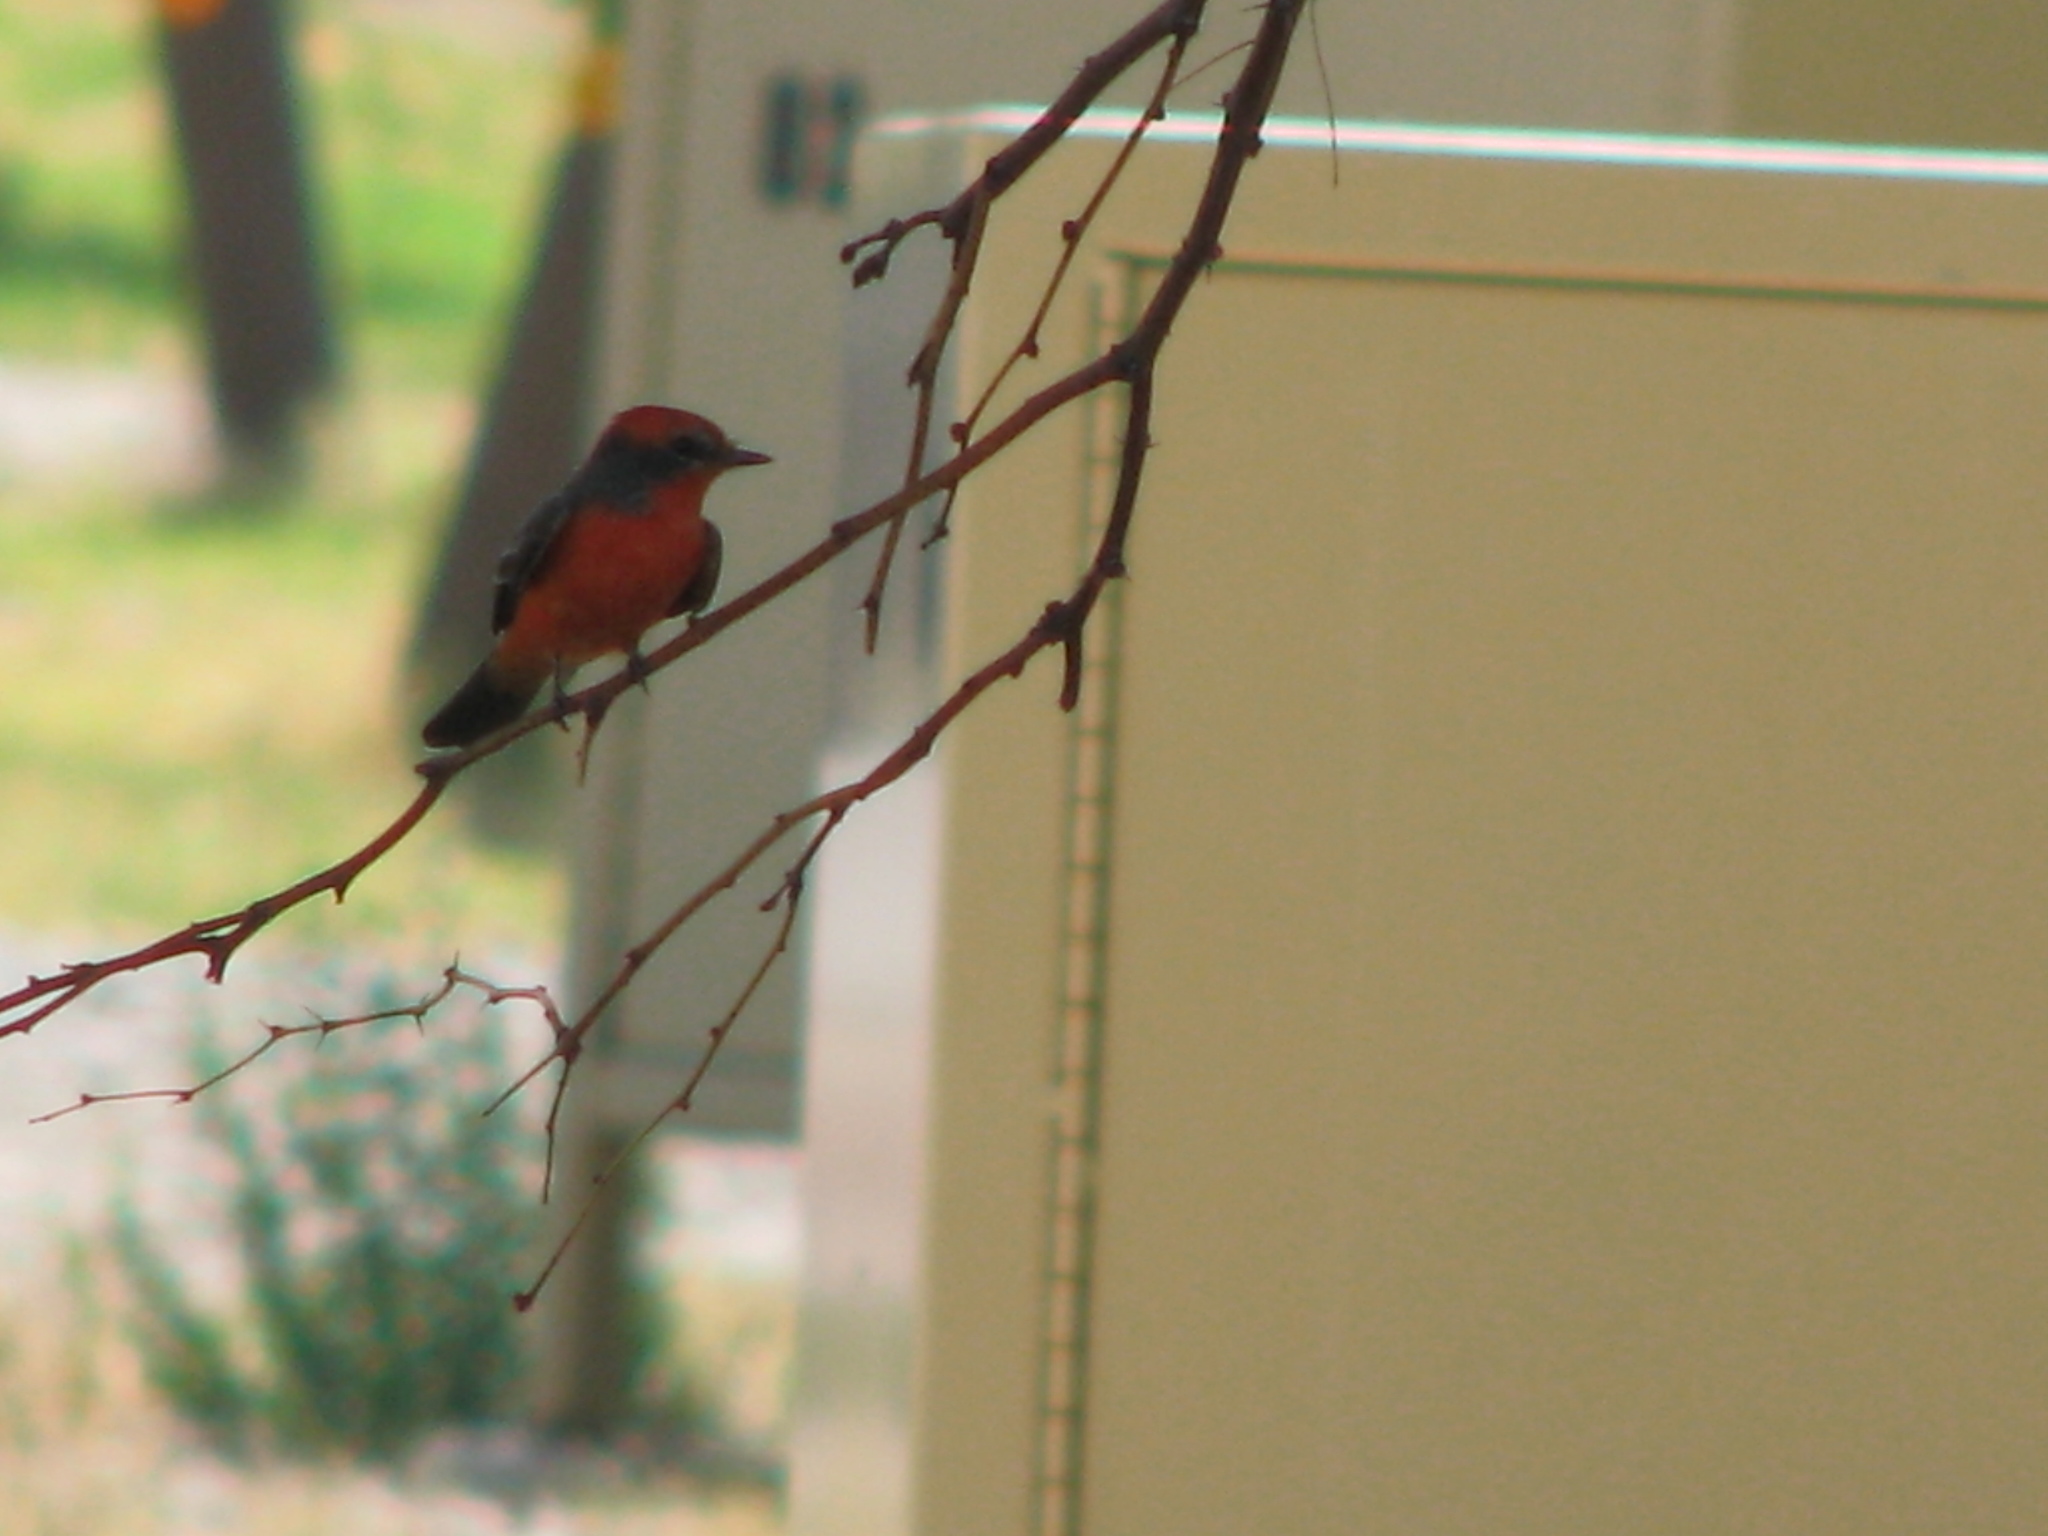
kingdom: Animalia
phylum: Chordata
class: Aves
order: Passeriformes
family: Tyrannidae
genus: Pyrocephalus
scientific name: Pyrocephalus rubinus
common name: Vermilion flycatcher
